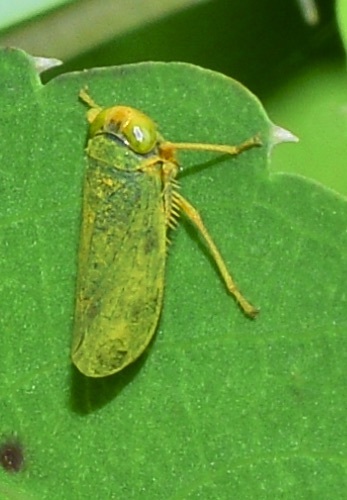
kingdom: Animalia
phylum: Arthropoda
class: Insecta
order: Hemiptera
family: Cicadellidae
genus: Jikradia
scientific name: Jikradia olitoria
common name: Coppery leafhopper
